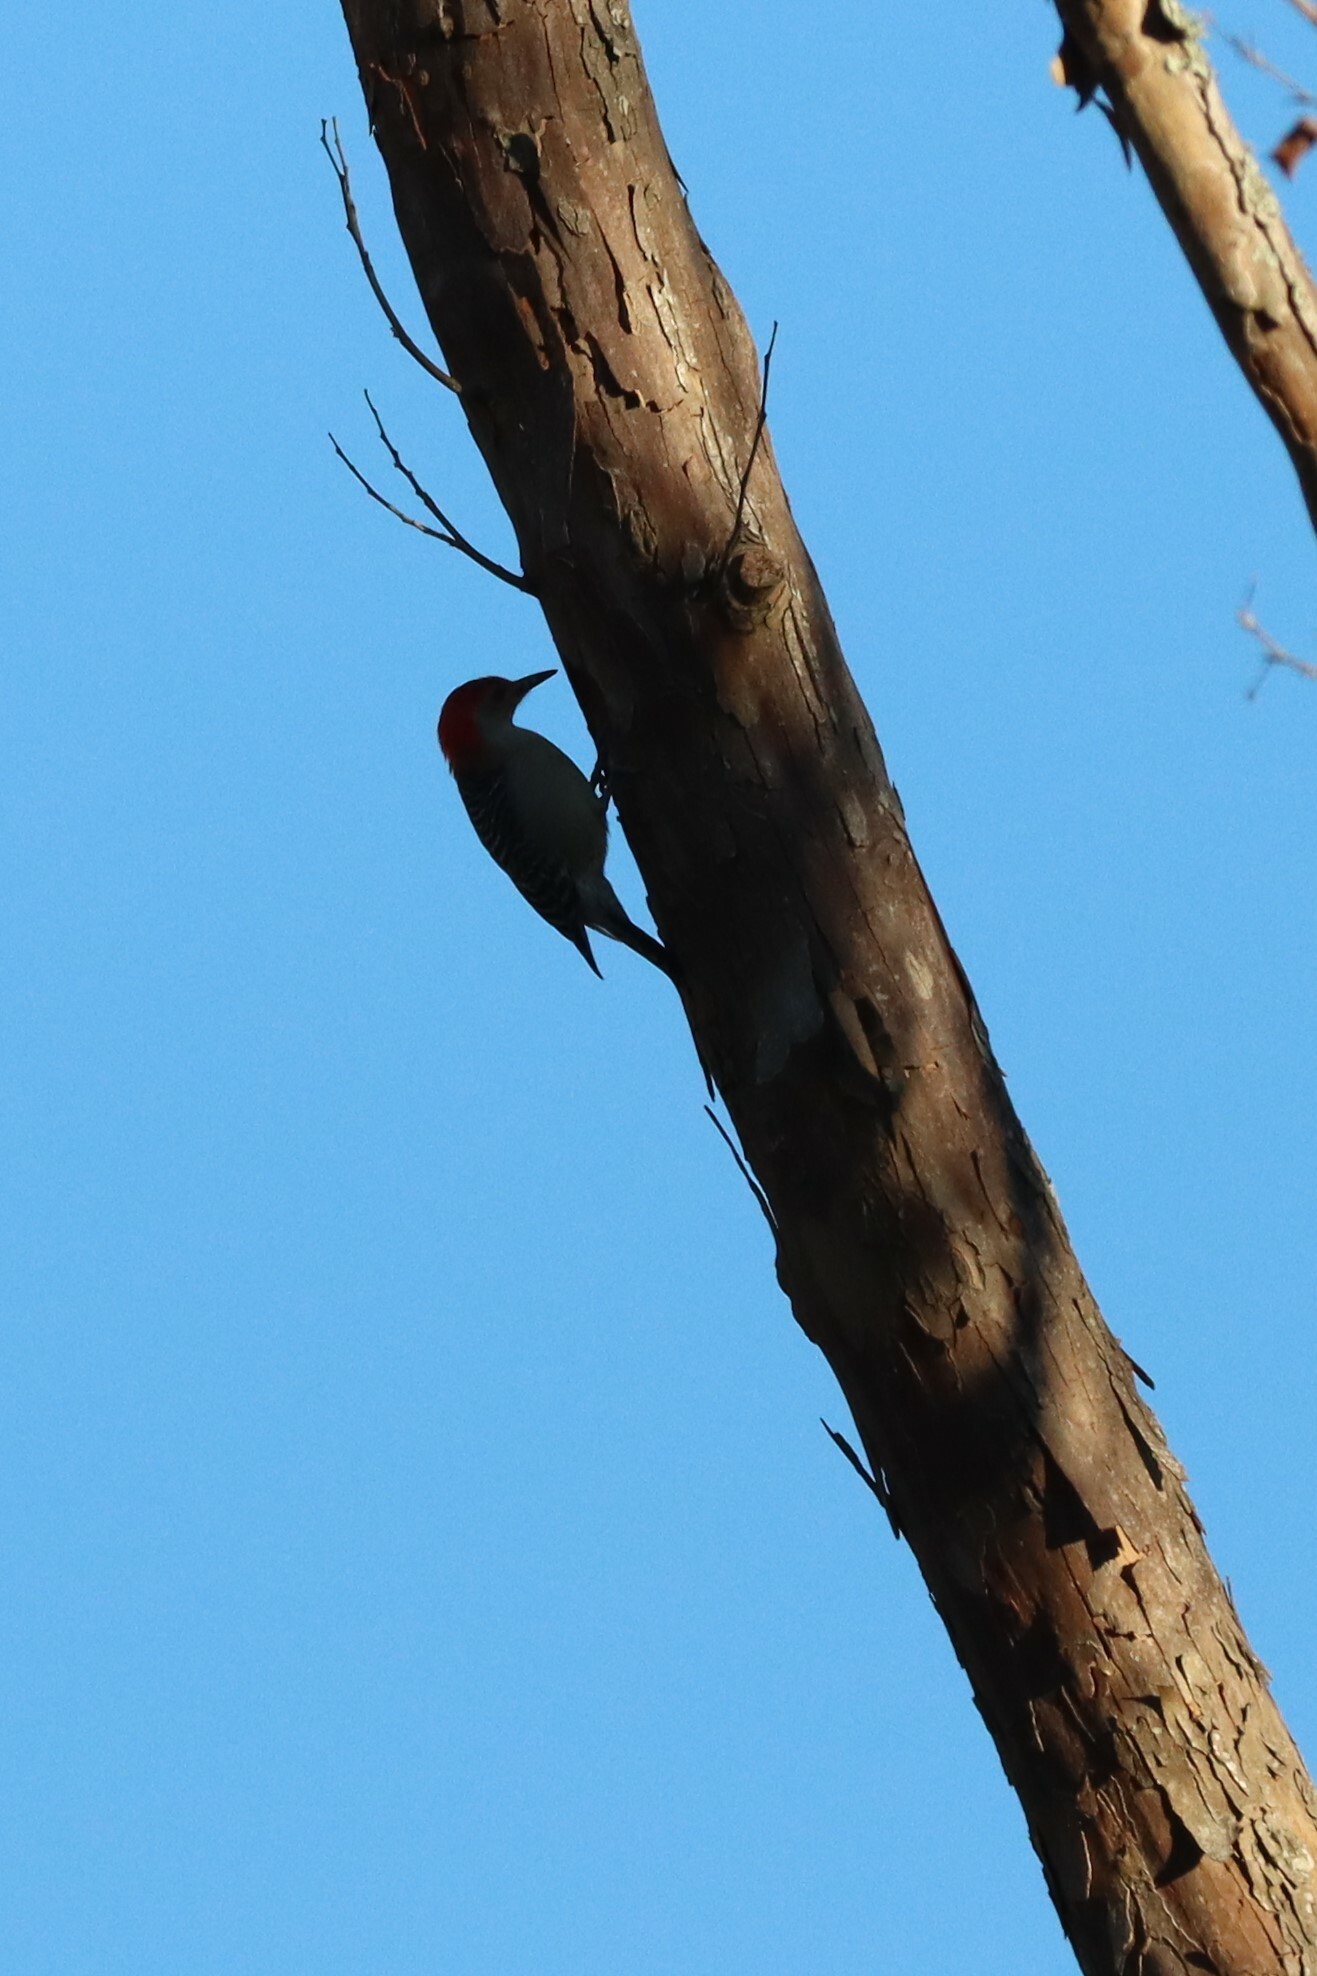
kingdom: Animalia
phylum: Chordata
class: Aves
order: Piciformes
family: Picidae
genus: Melanerpes
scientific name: Melanerpes carolinus
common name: Red-bellied woodpecker
